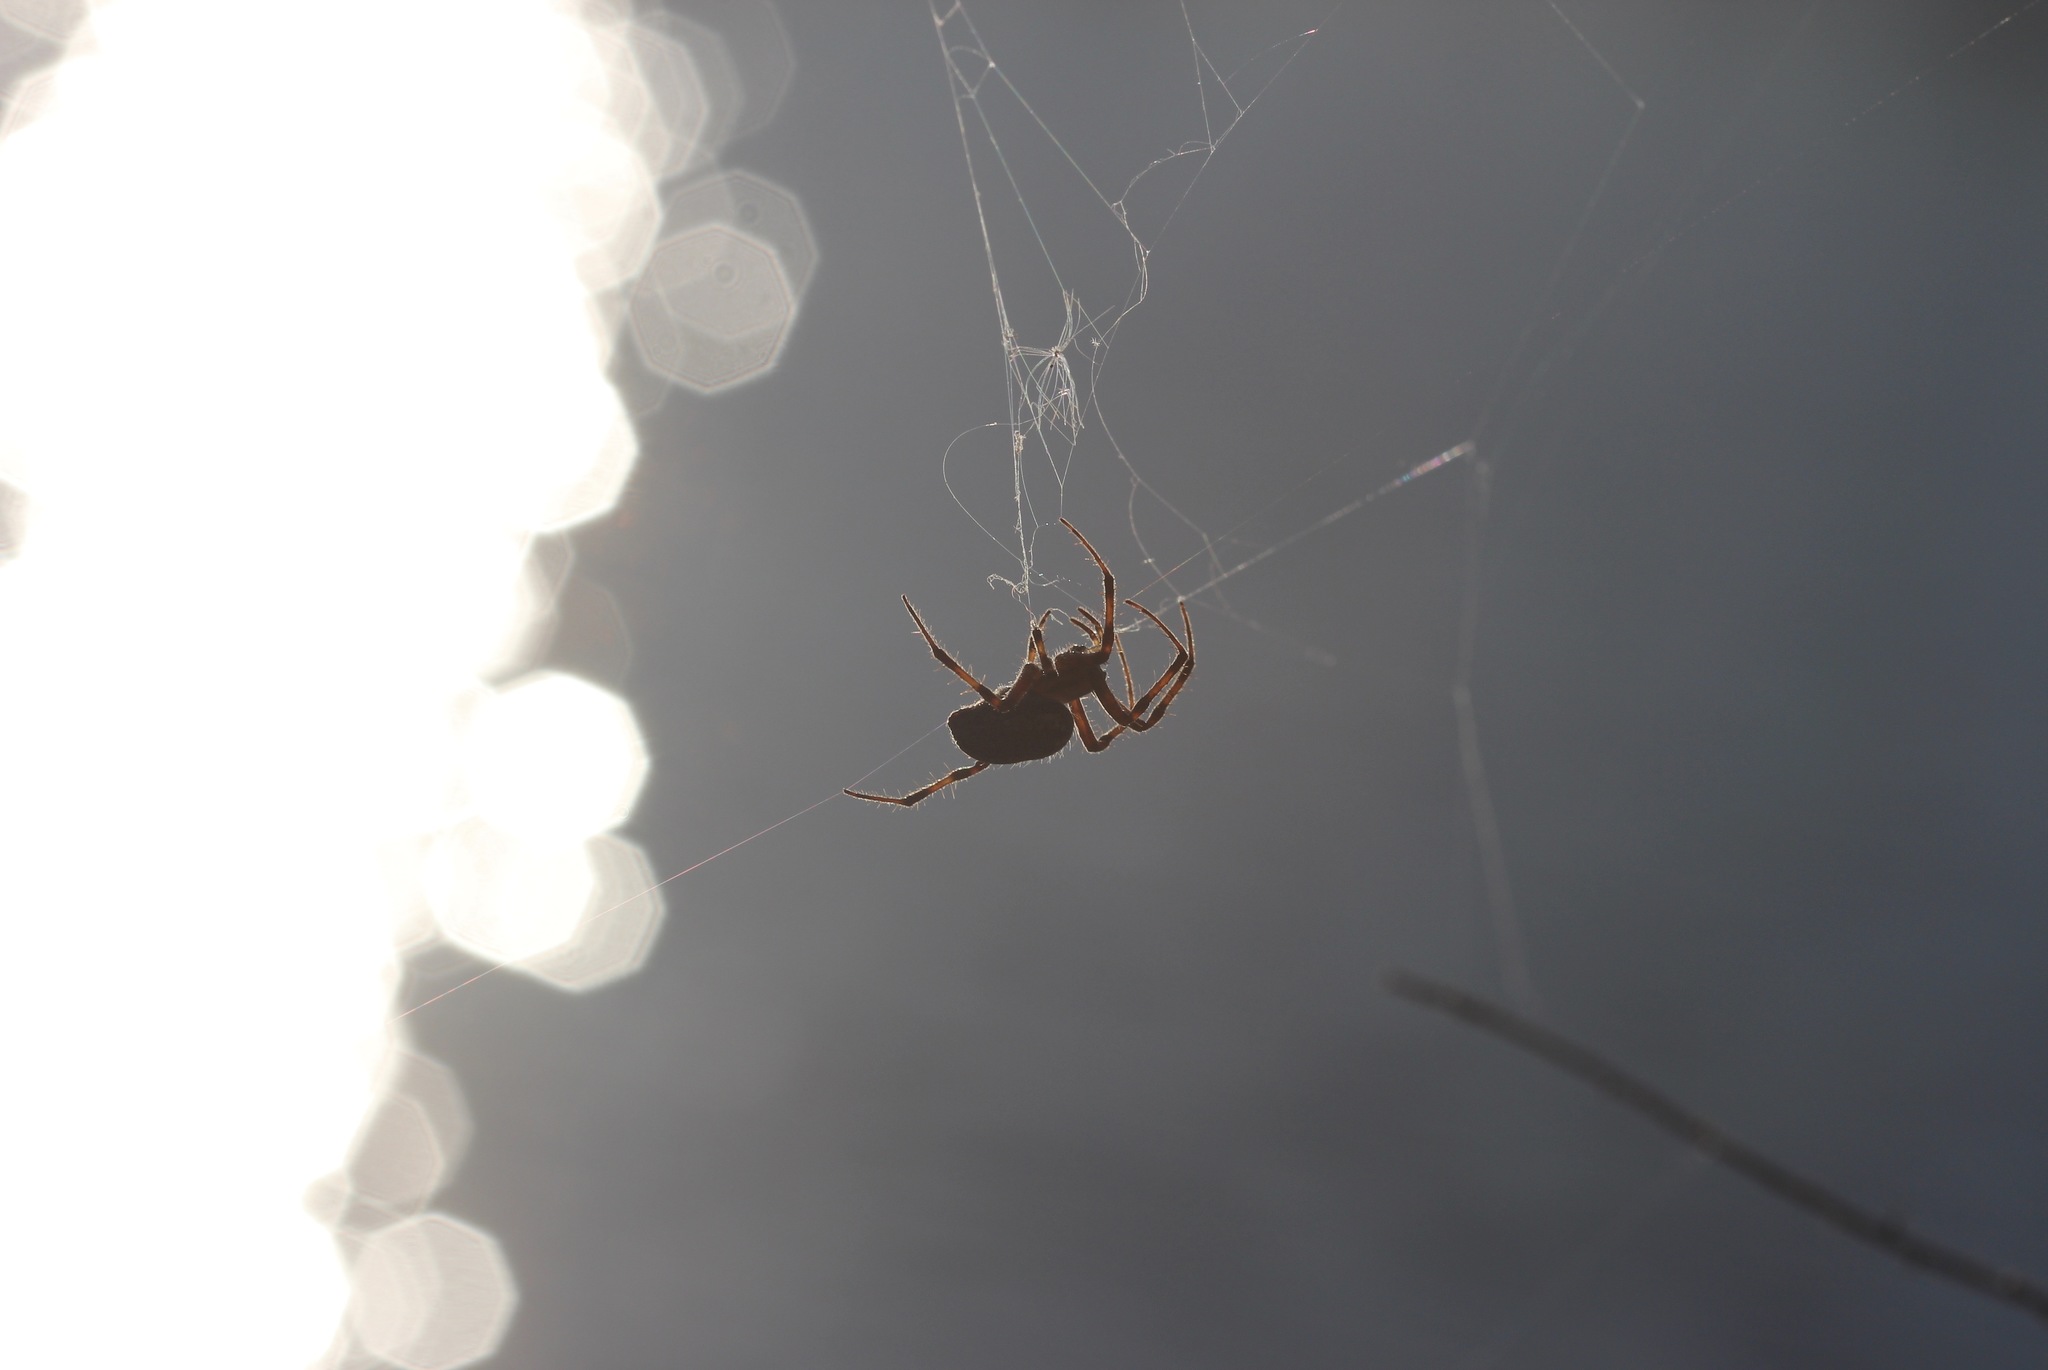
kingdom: Animalia
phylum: Arthropoda
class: Arachnida
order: Araneae
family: Araneidae
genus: Neoscona
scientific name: Neoscona oaxacensis
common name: Orb weavers
